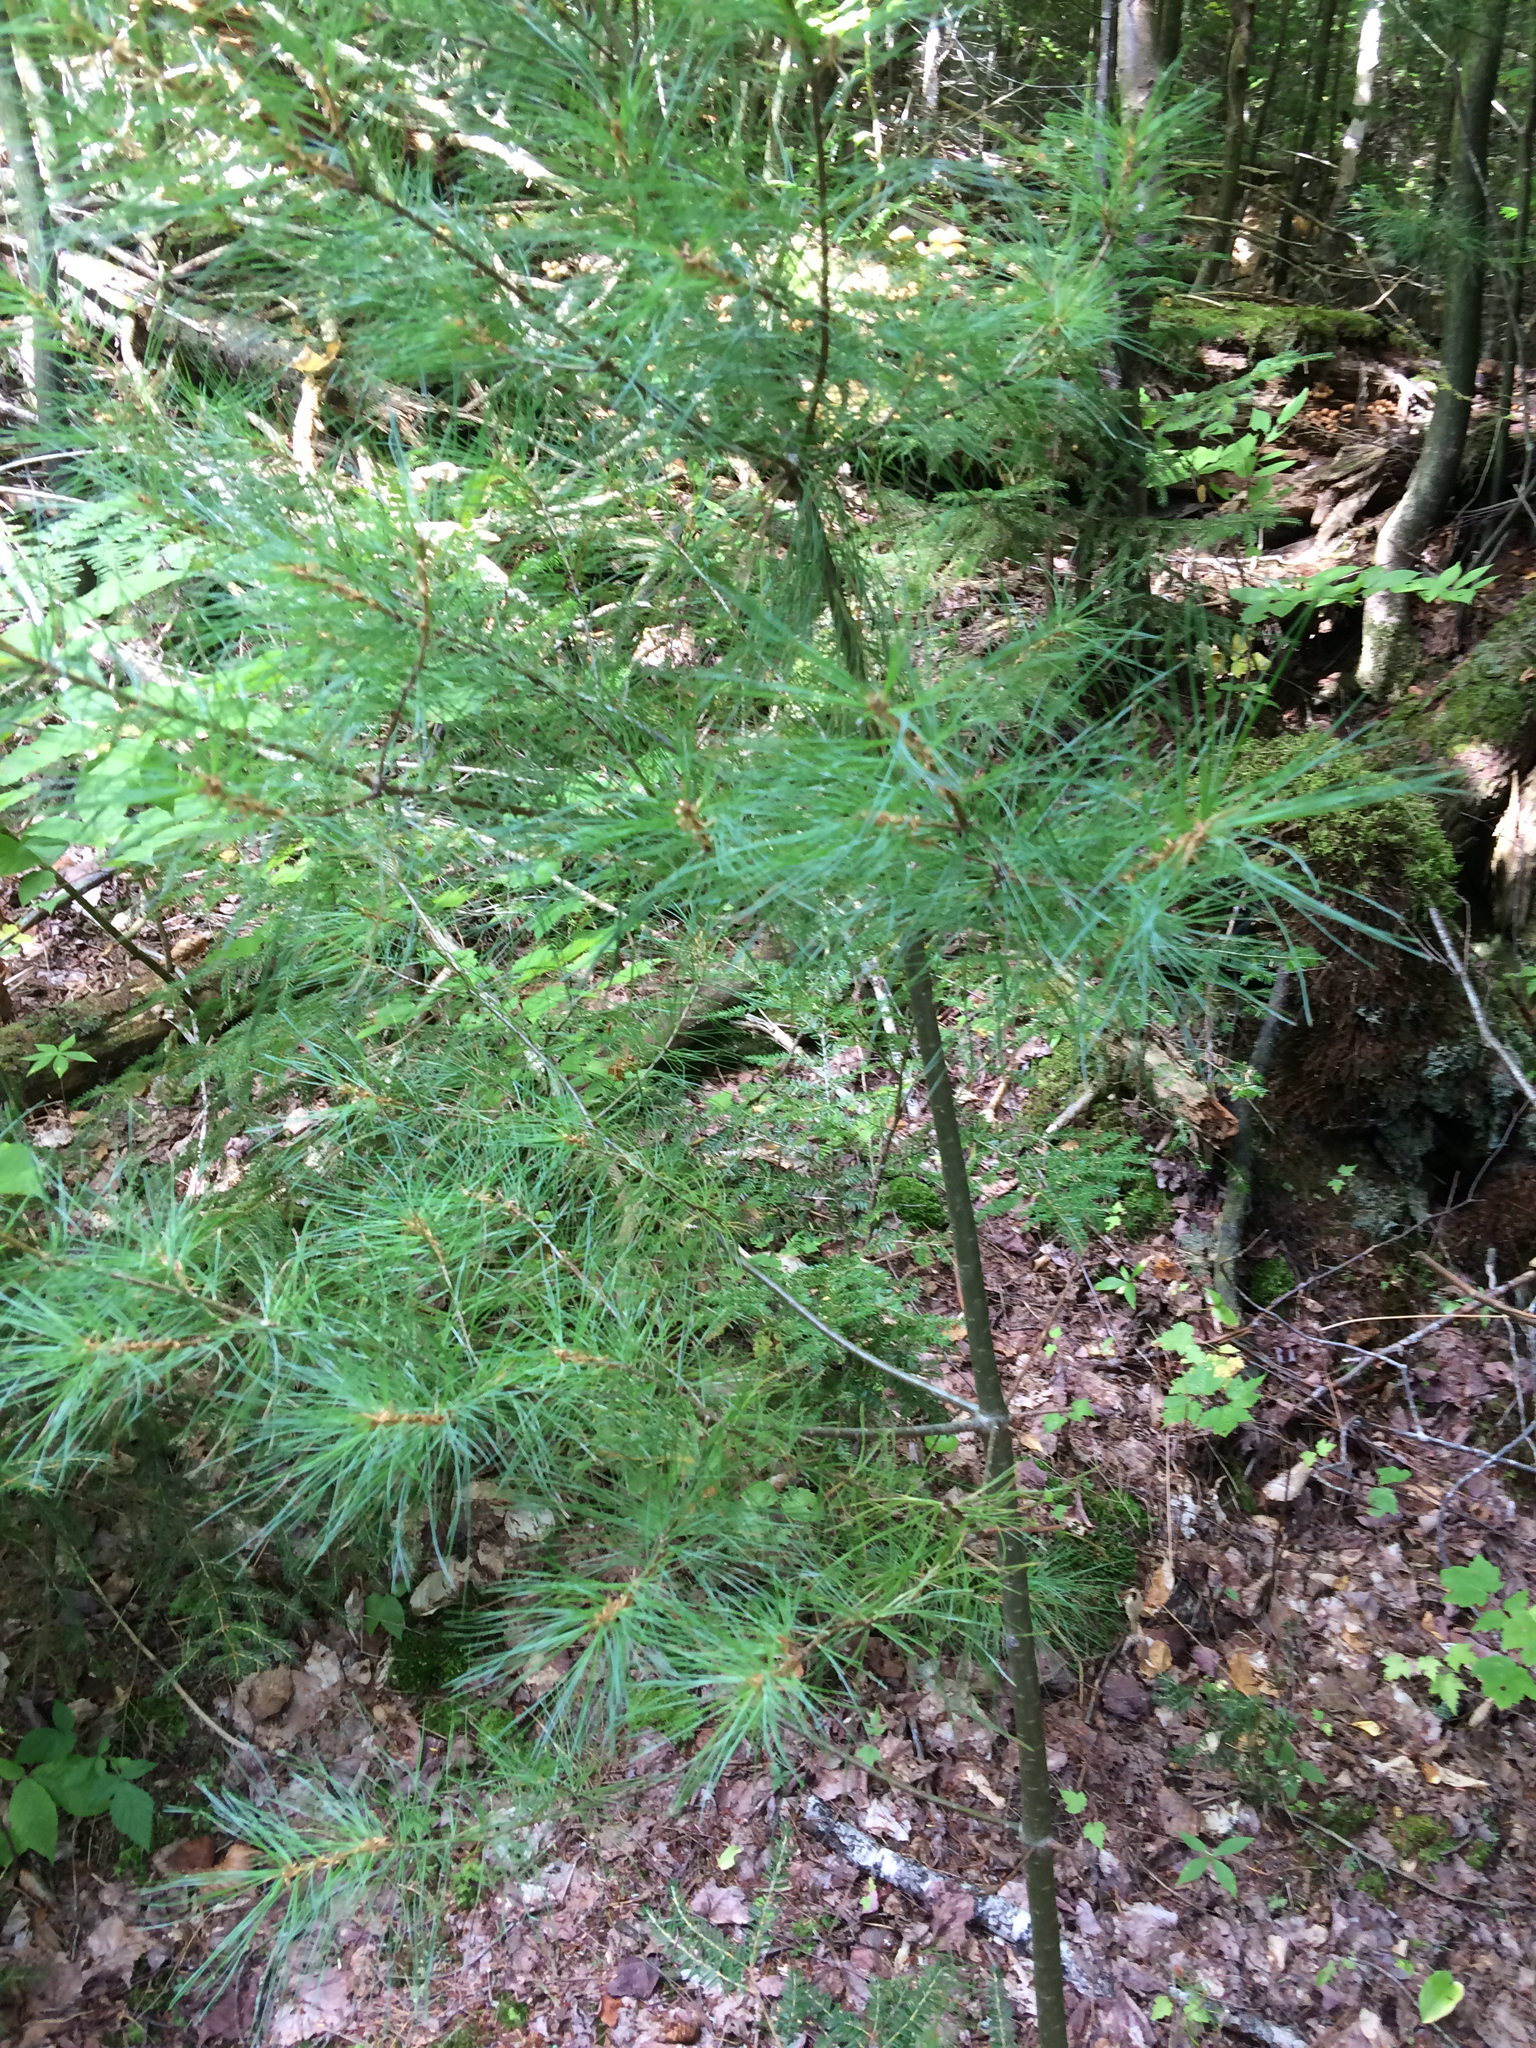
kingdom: Plantae
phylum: Tracheophyta
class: Pinopsida
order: Pinales
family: Pinaceae
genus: Pinus
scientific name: Pinus strobus
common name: Weymouth pine
